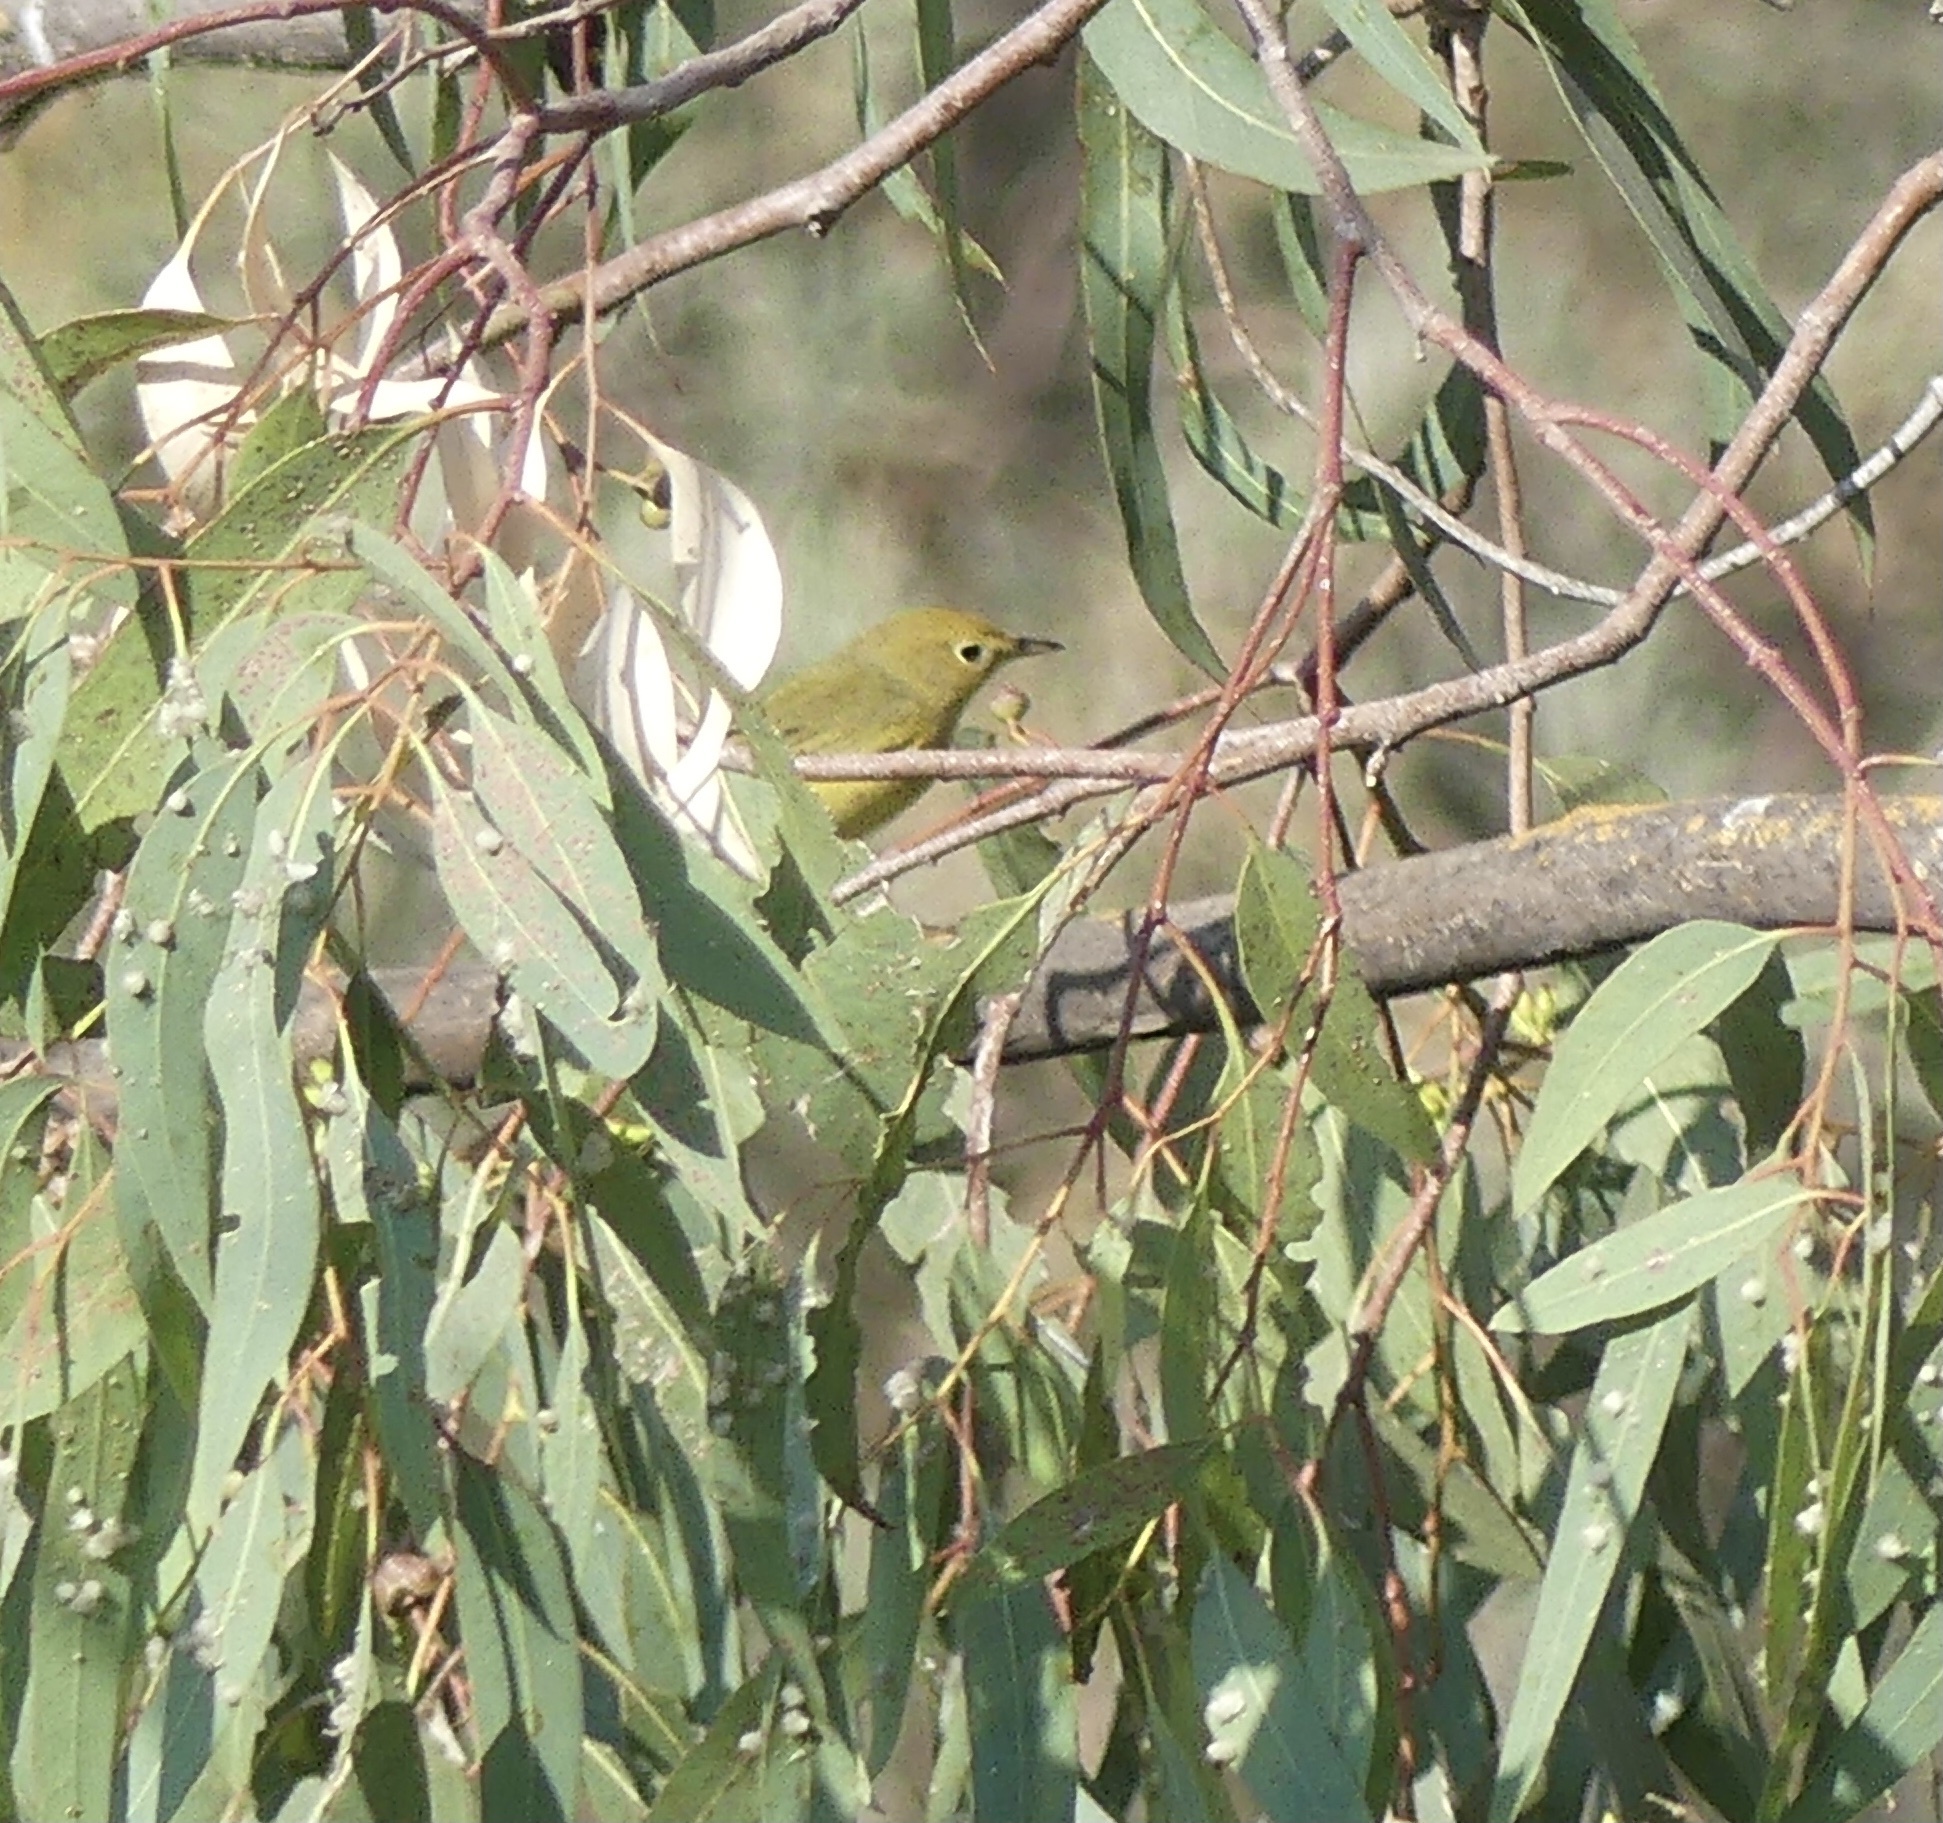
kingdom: Animalia
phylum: Chordata
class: Aves
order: Passeriformes
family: Parulidae
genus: Setophaga
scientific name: Setophaga petechia
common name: Yellow warbler
